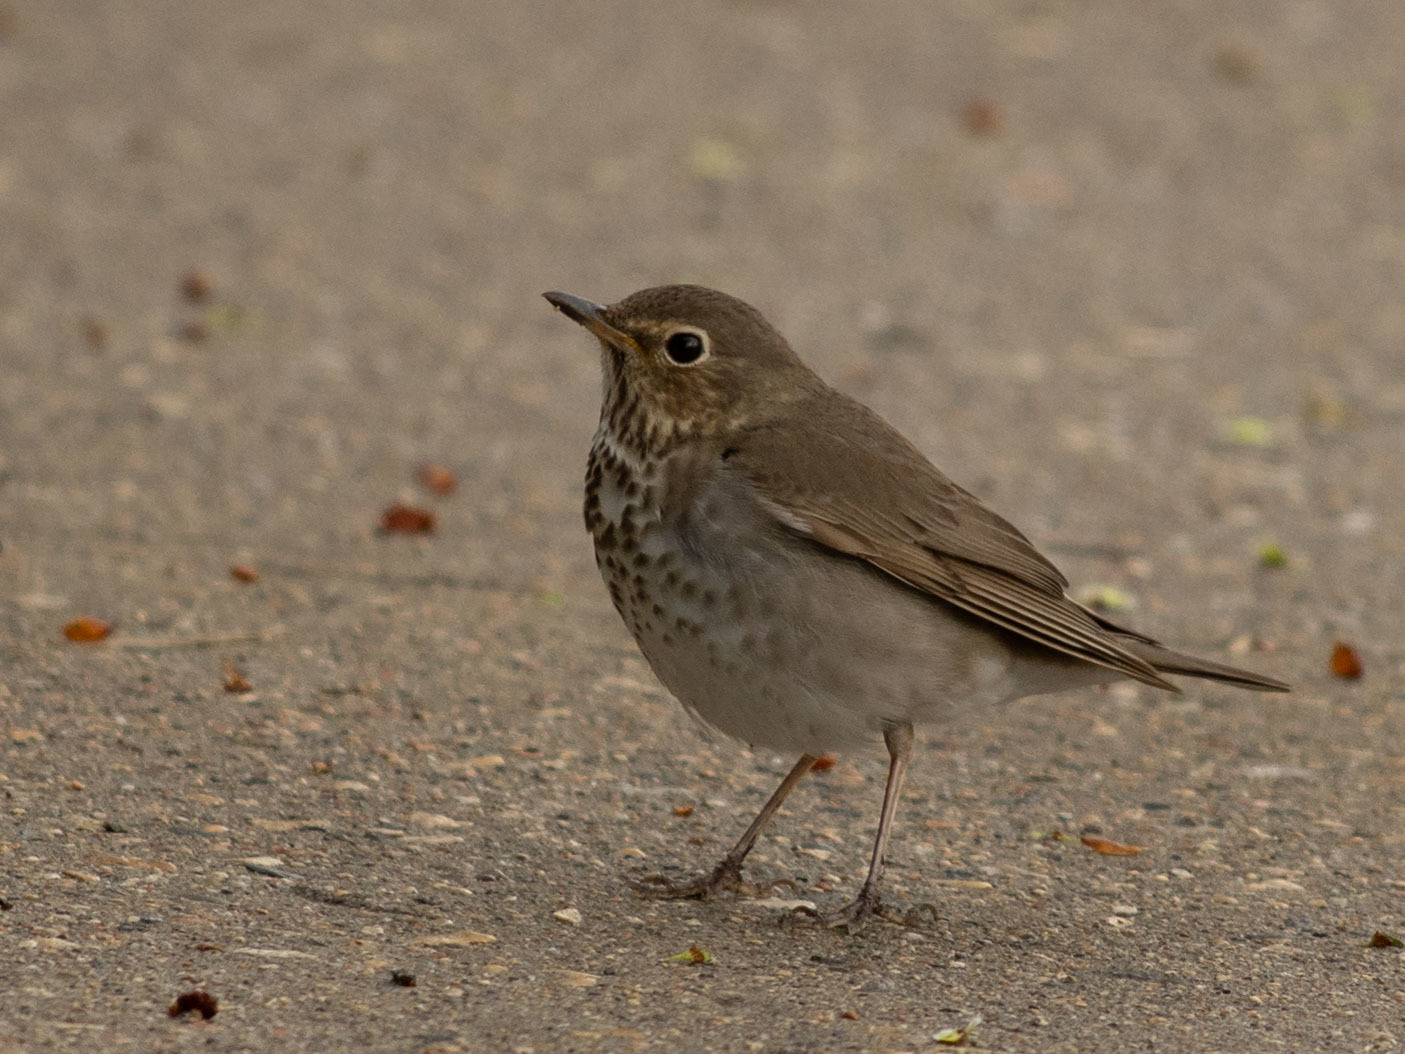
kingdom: Animalia
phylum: Chordata
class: Aves
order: Passeriformes
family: Turdidae
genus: Catharus
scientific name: Catharus ustulatus
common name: Swainson's thrush
